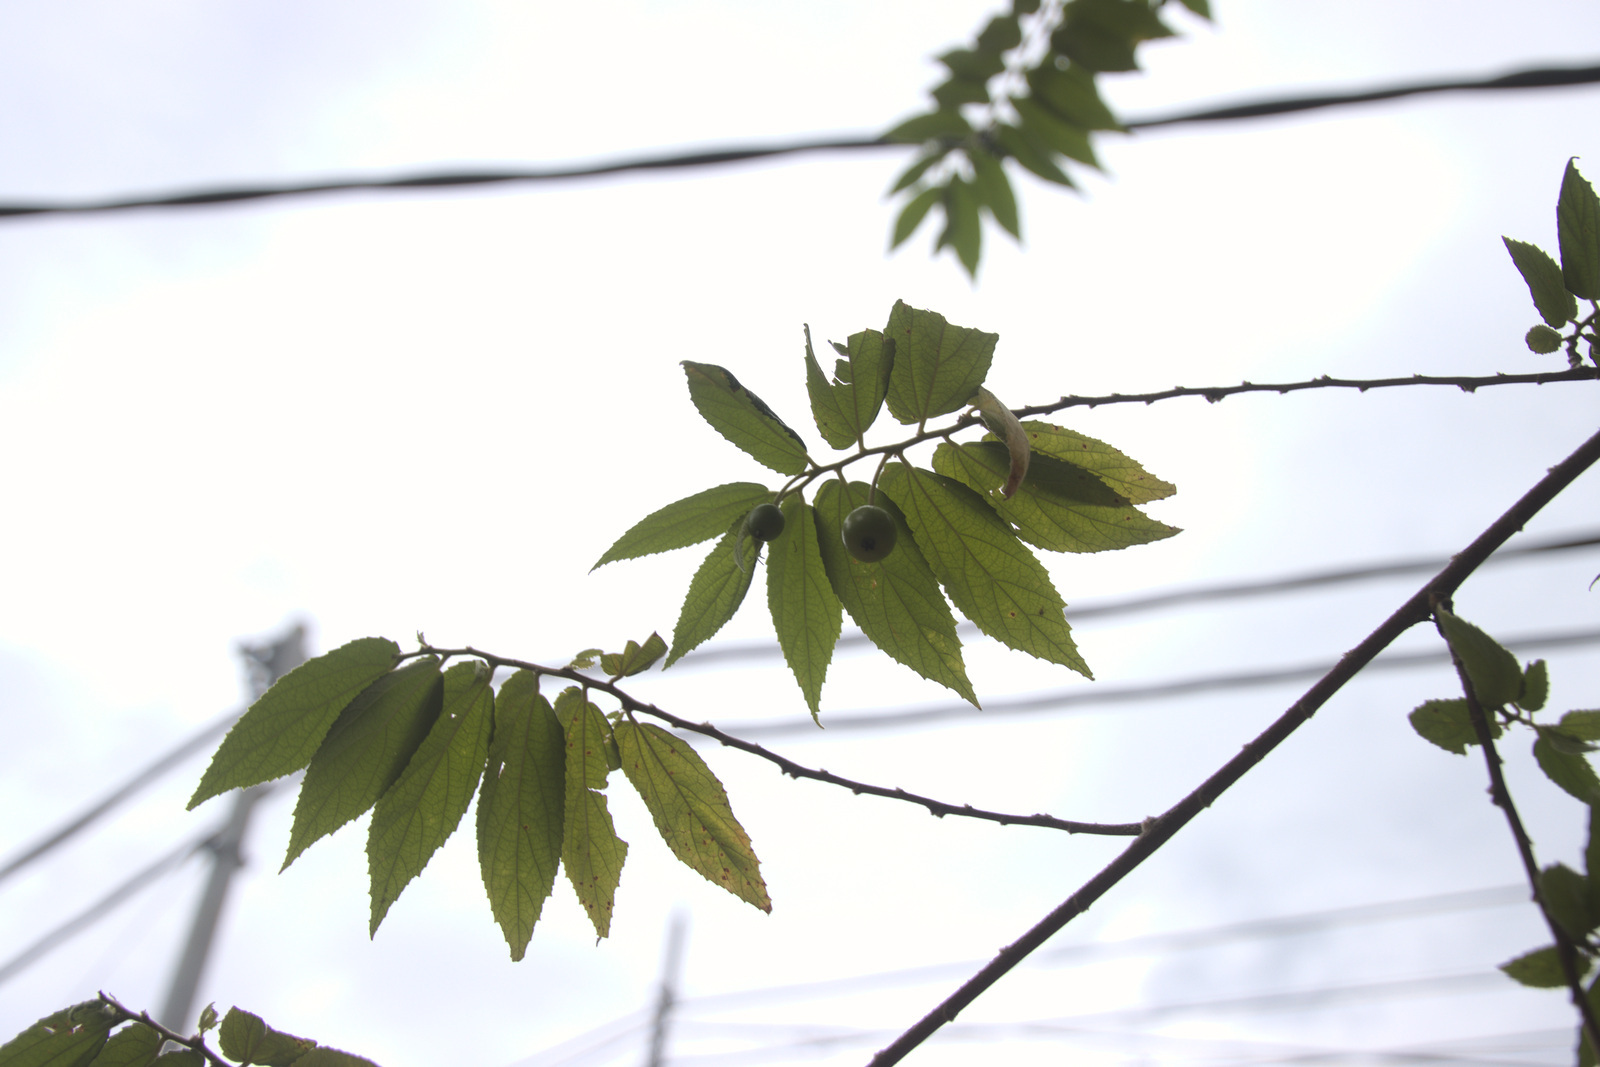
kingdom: Plantae
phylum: Tracheophyta
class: Magnoliopsida
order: Malvales
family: Muntingiaceae
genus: Muntingia
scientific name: Muntingia calabura
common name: Strawberrytree
